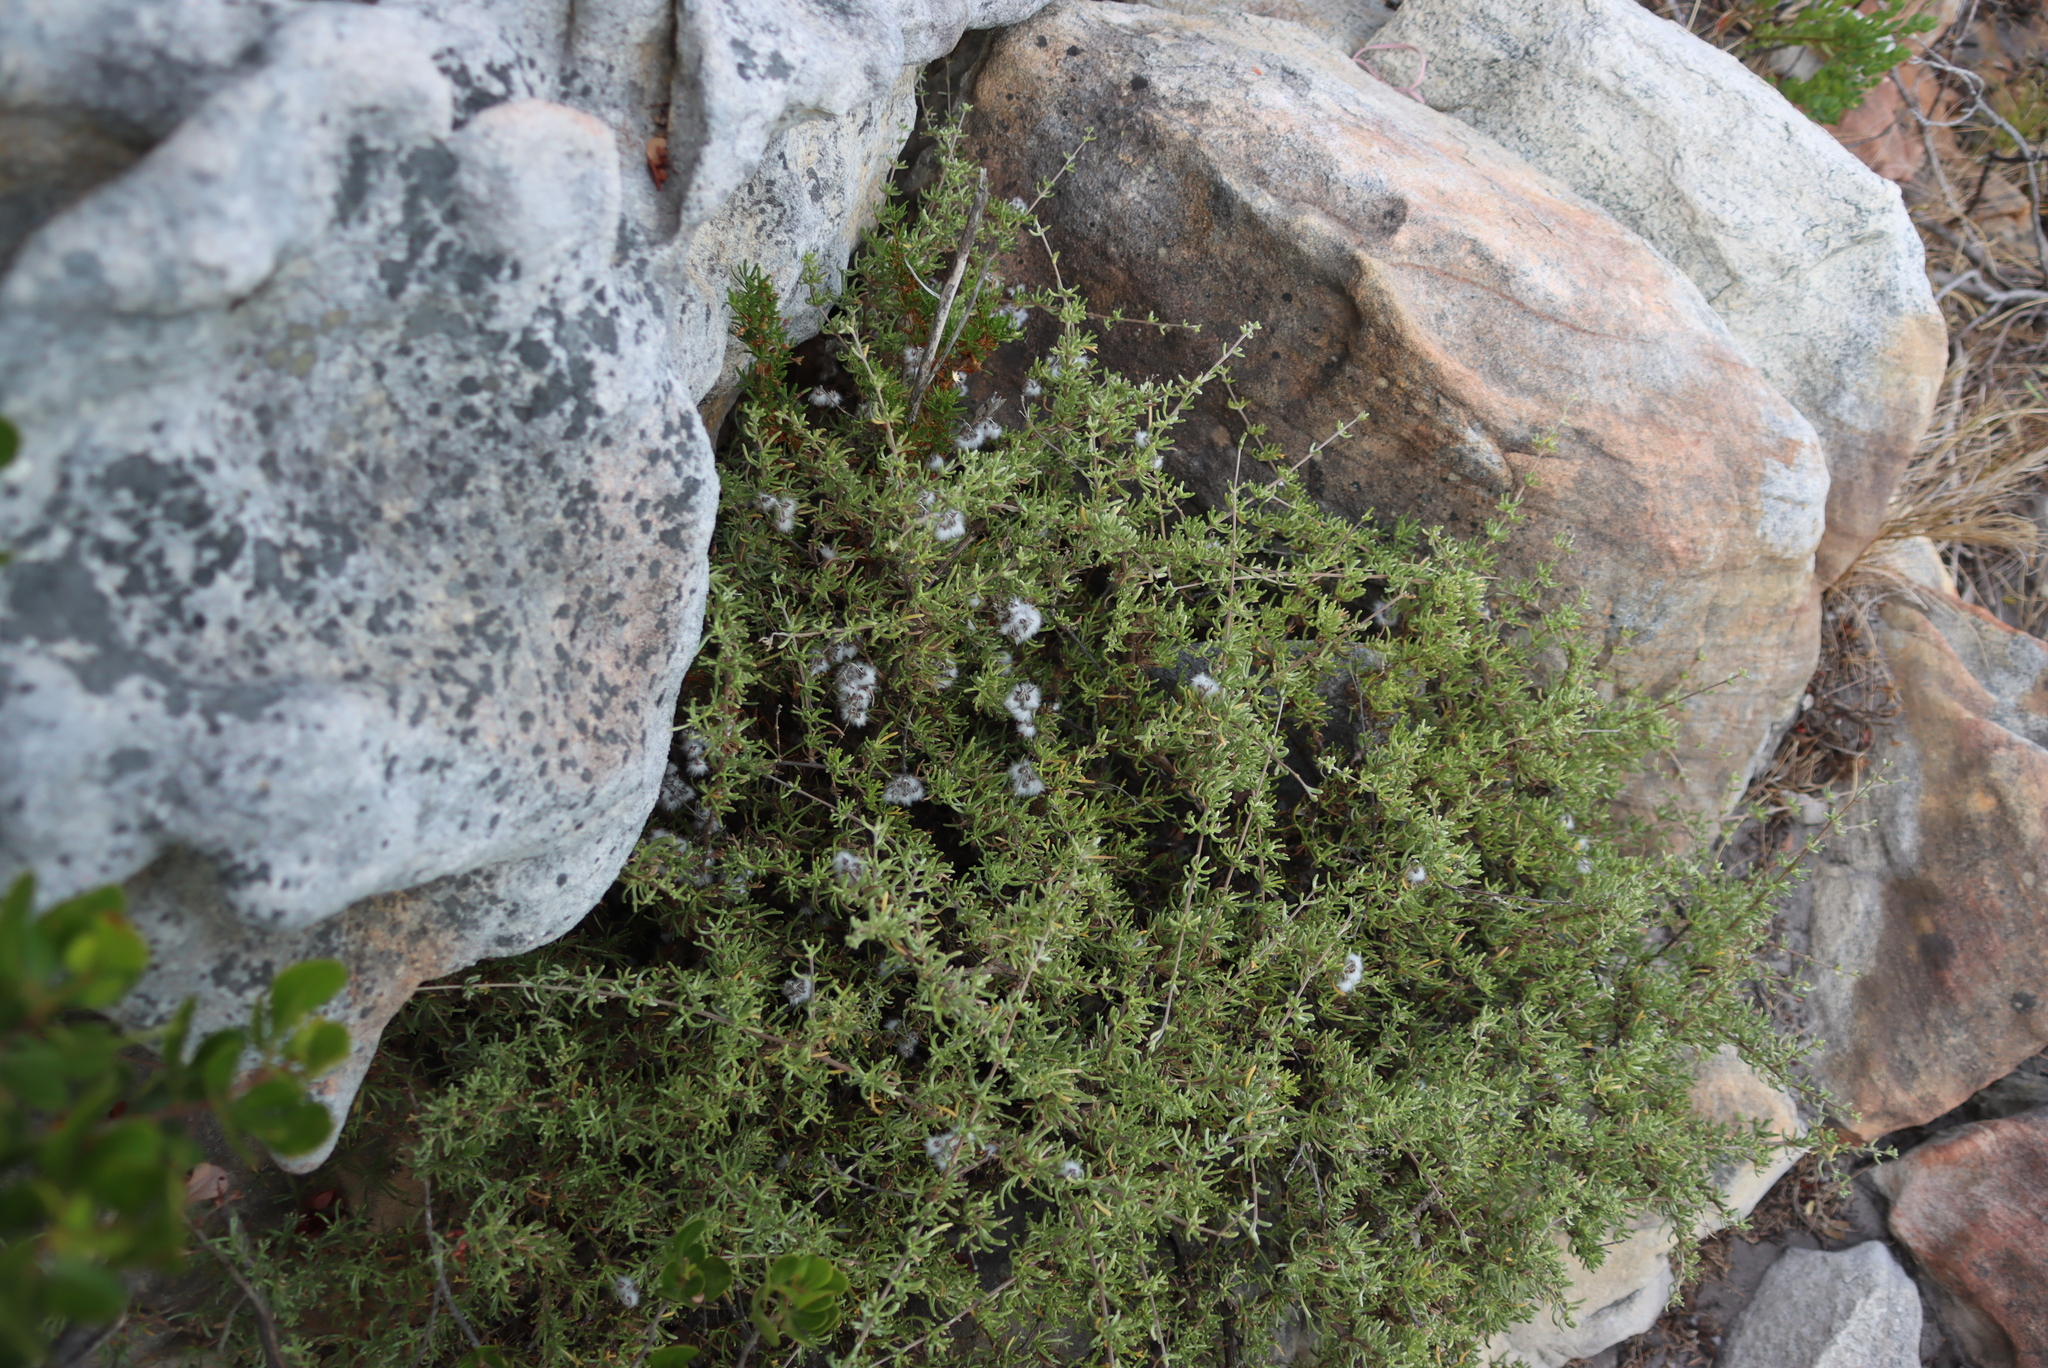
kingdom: Plantae
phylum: Tracheophyta
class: Magnoliopsida
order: Asterales
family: Asteraceae
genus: Eriocephalus
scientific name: Eriocephalus africanus
